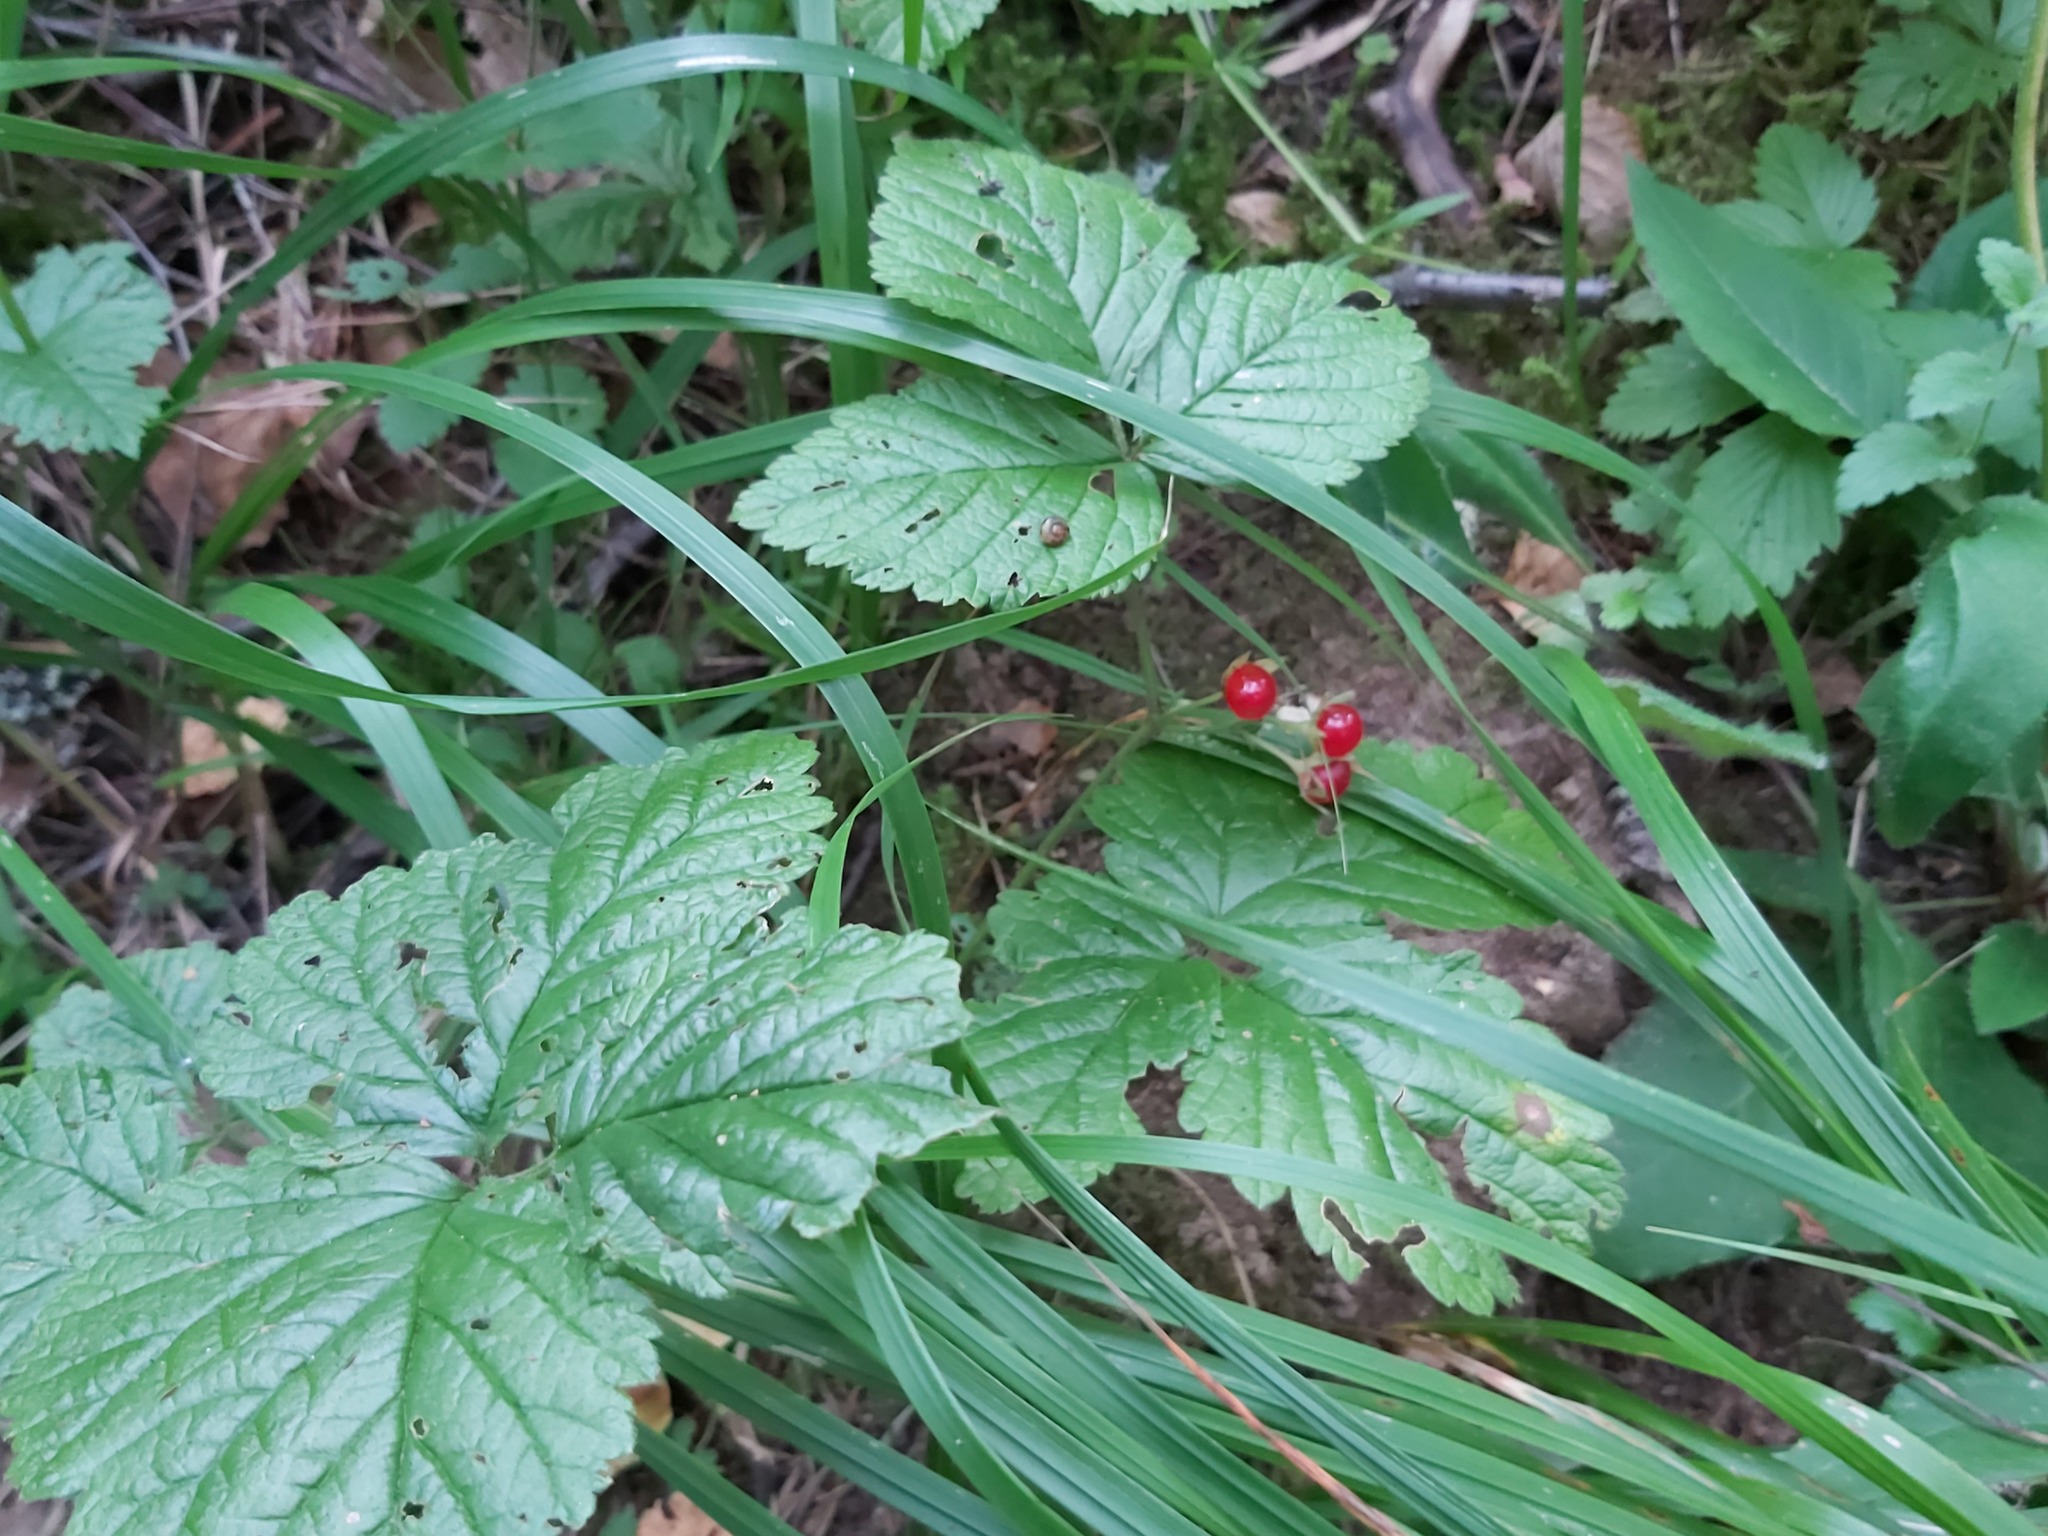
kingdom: Plantae
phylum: Tracheophyta
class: Magnoliopsida
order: Rosales
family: Rosaceae
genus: Rubus
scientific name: Rubus saxatilis
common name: Stone bramble
